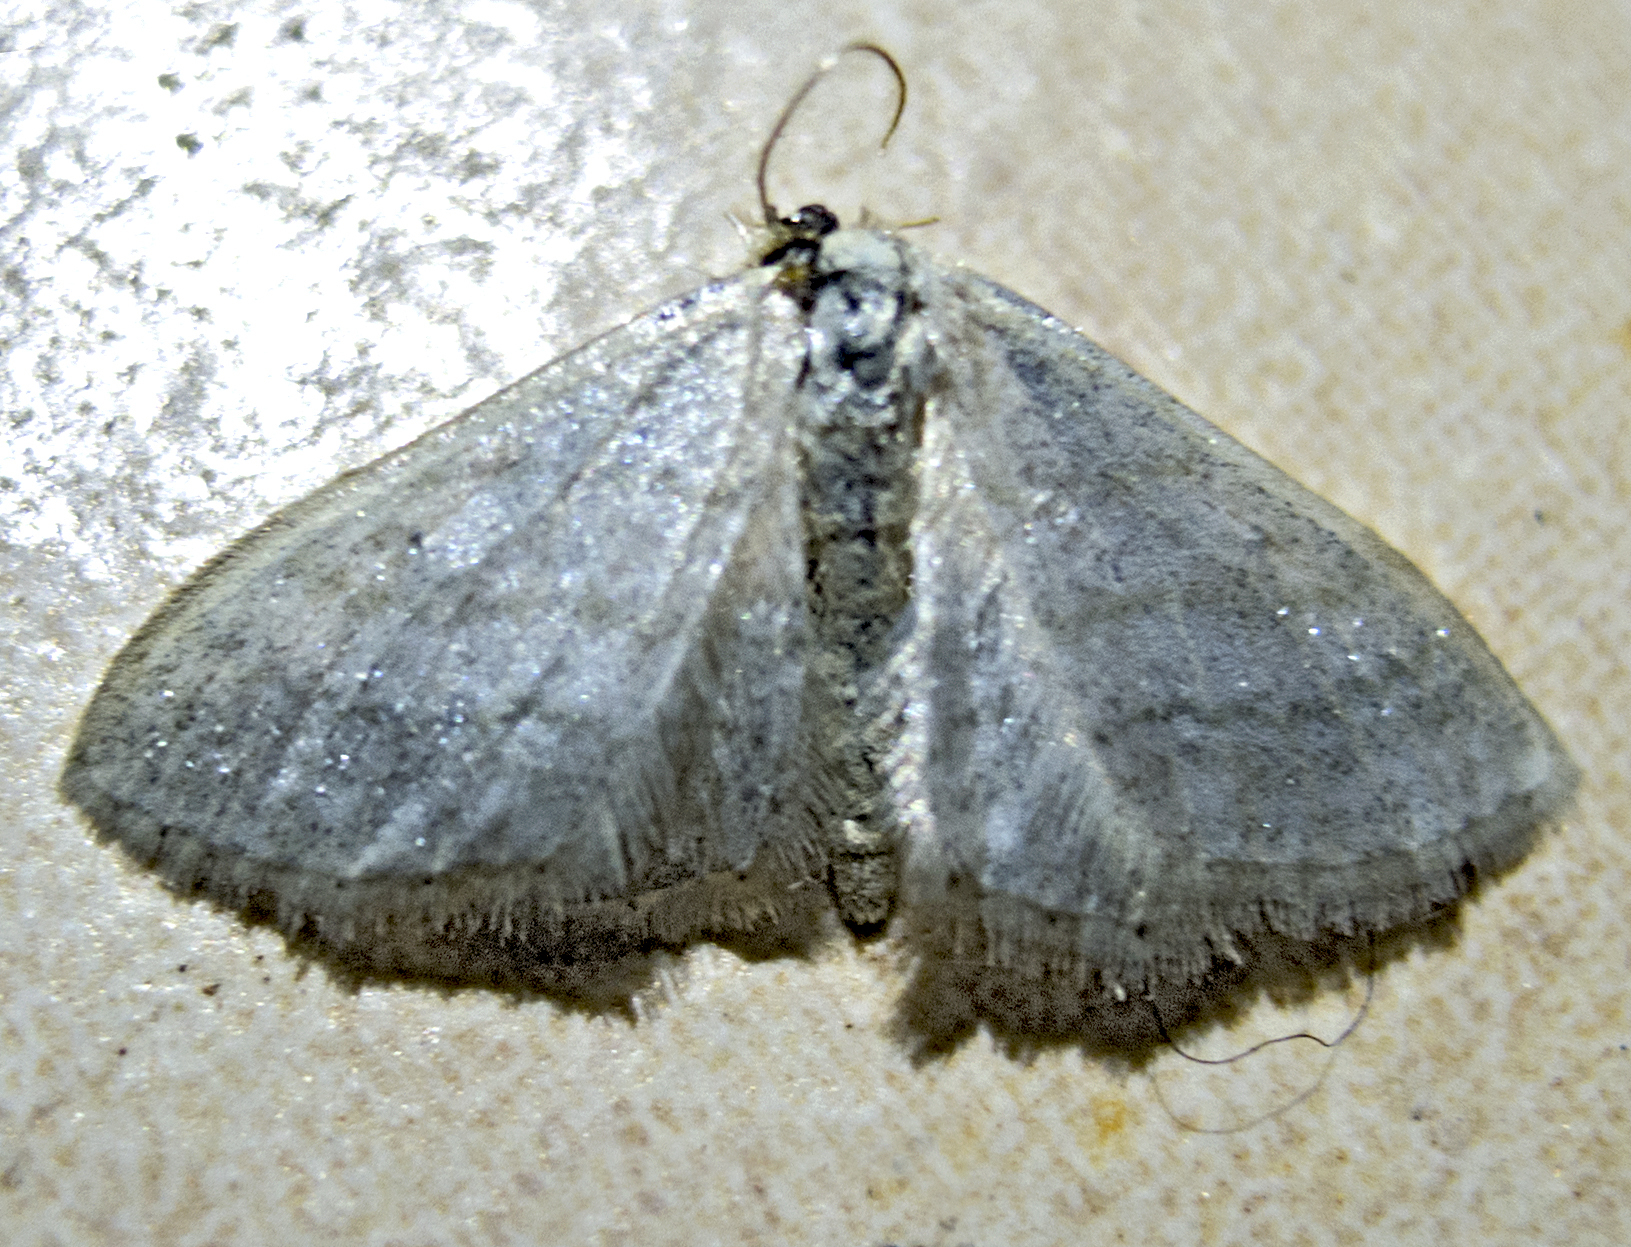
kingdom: Animalia
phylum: Arthropoda
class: Insecta
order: Lepidoptera
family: Geometridae
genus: Idaea
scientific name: Idaea subsericeata
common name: Satin wave
